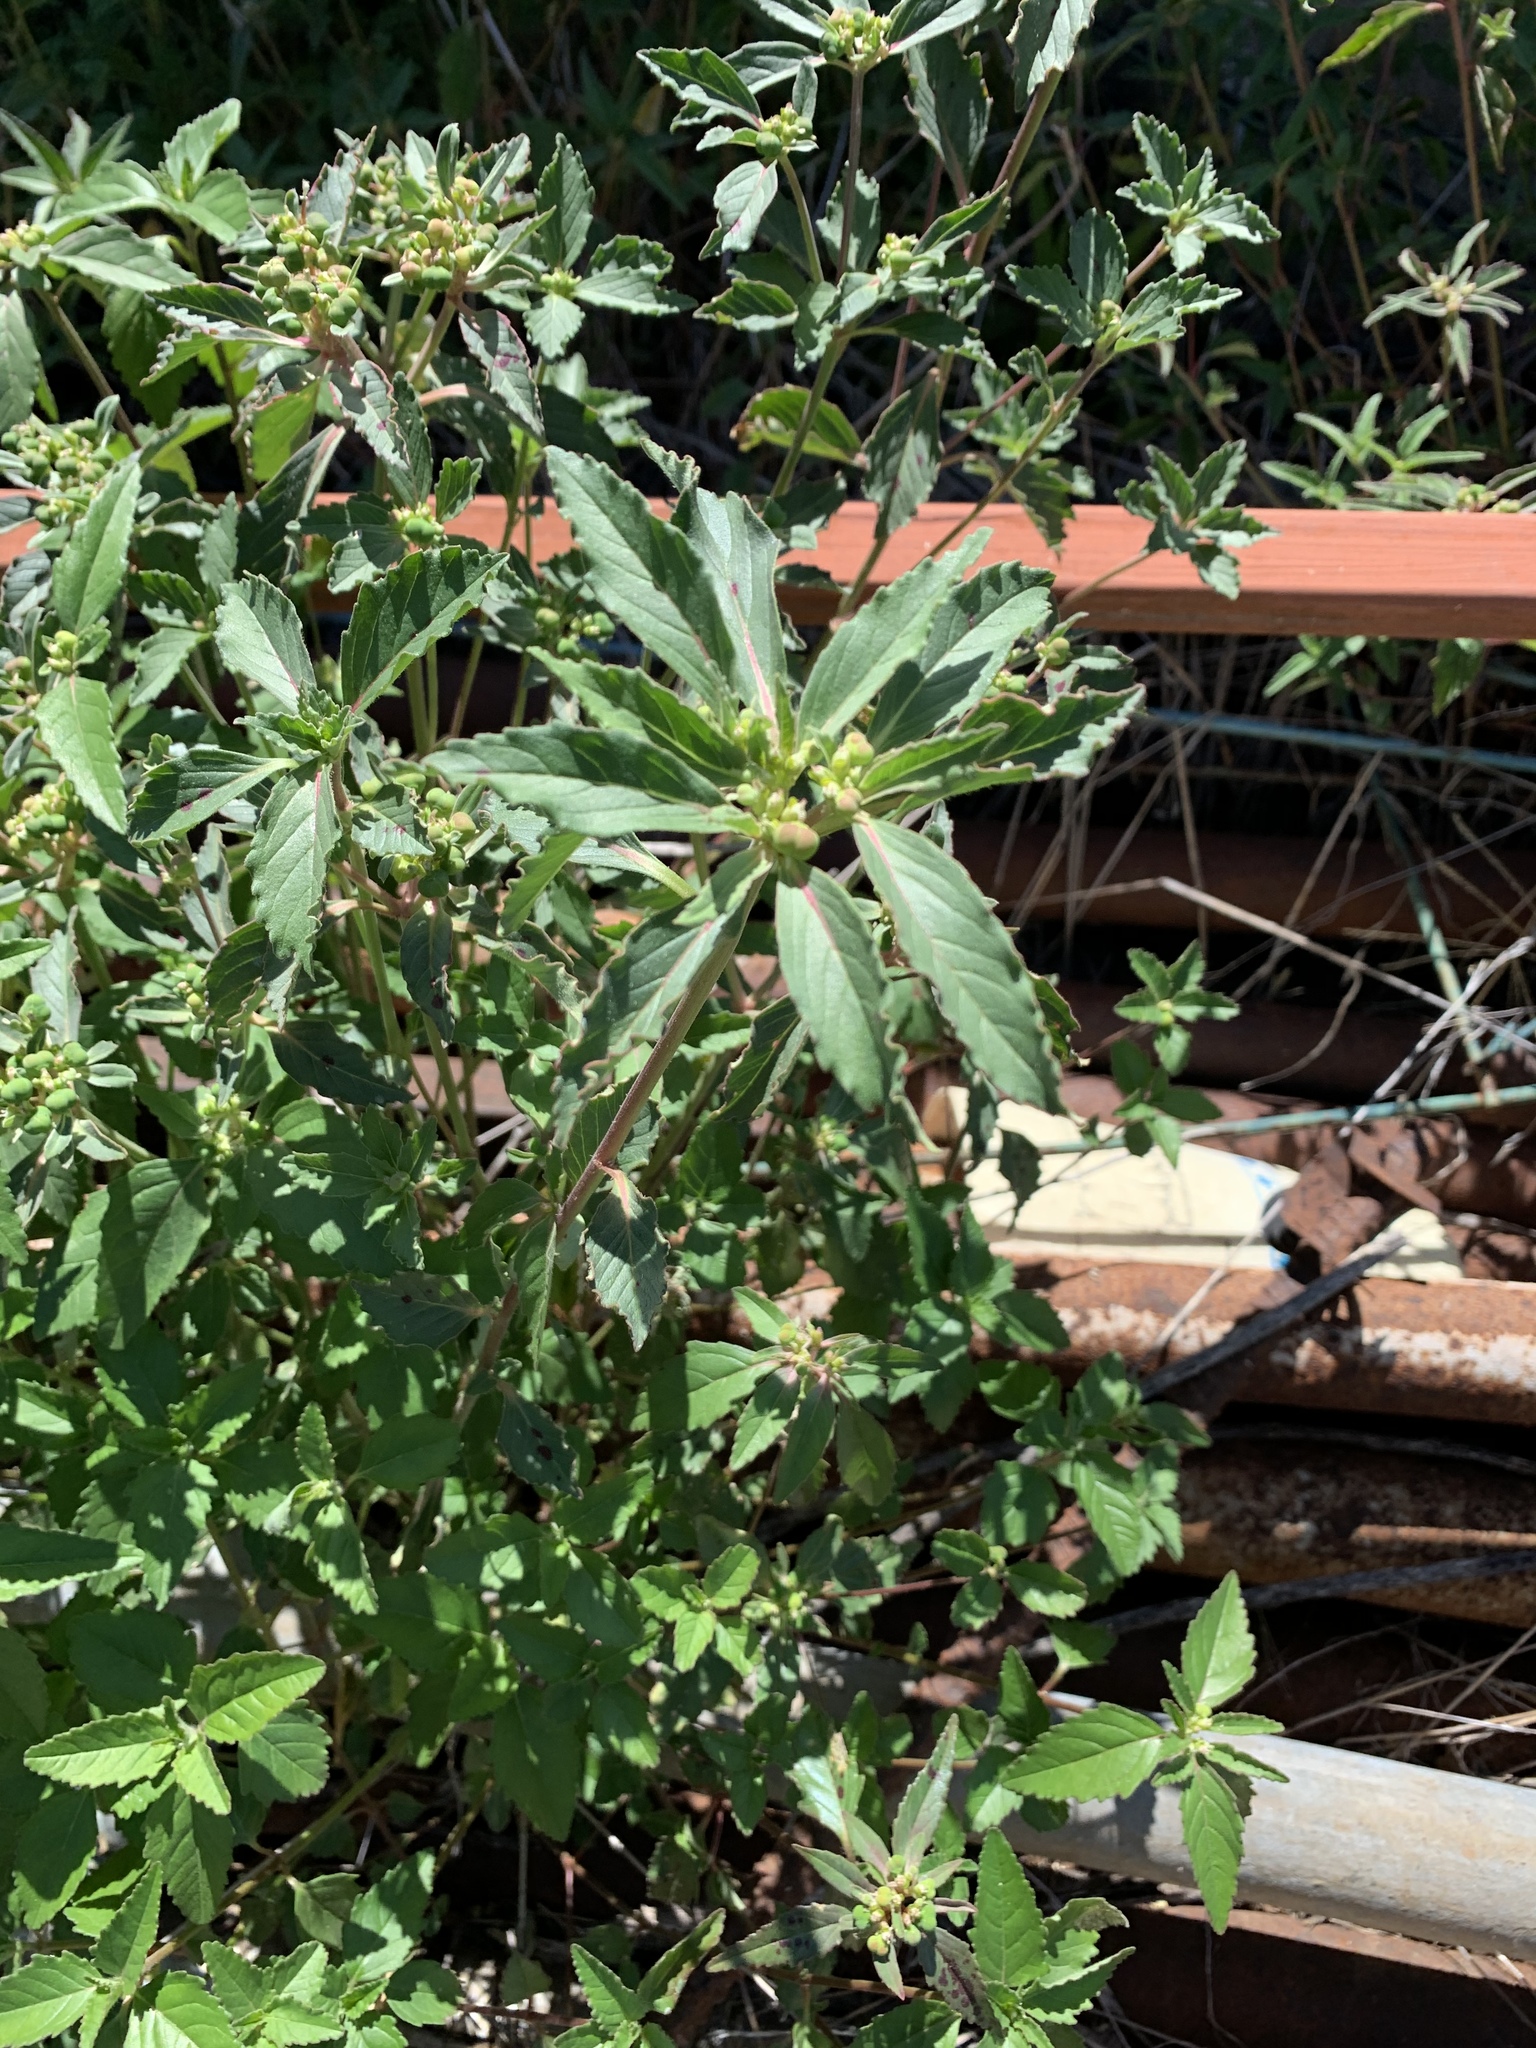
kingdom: Plantae
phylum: Tracheophyta
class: Magnoliopsida
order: Malpighiales
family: Euphorbiaceae
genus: Euphorbia
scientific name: Euphorbia davidii
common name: David's spurge
